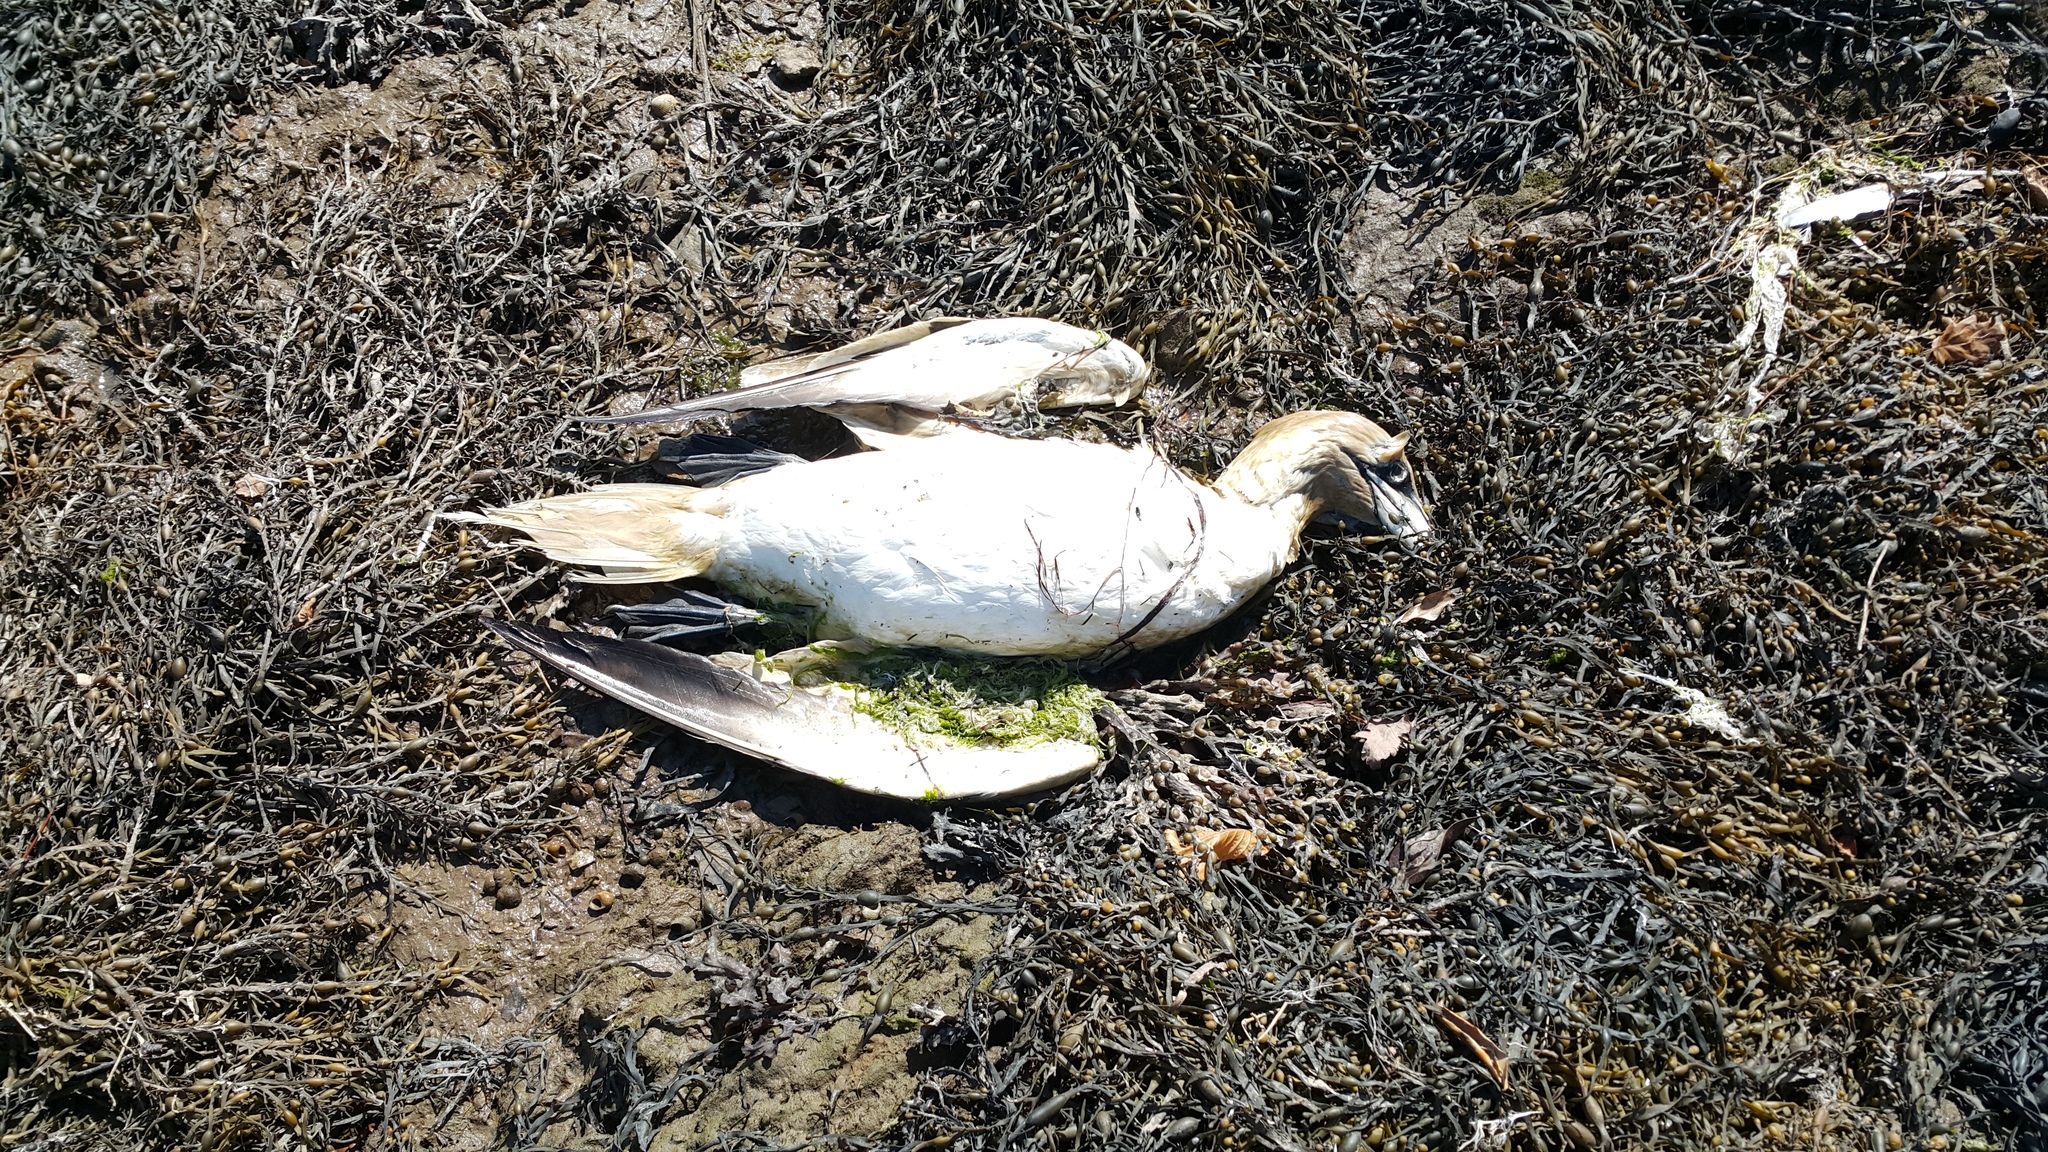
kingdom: Animalia
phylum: Chordata
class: Aves
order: Suliformes
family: Sulidae
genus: Morus
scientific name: Morus bassanus
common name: Northern gannet
